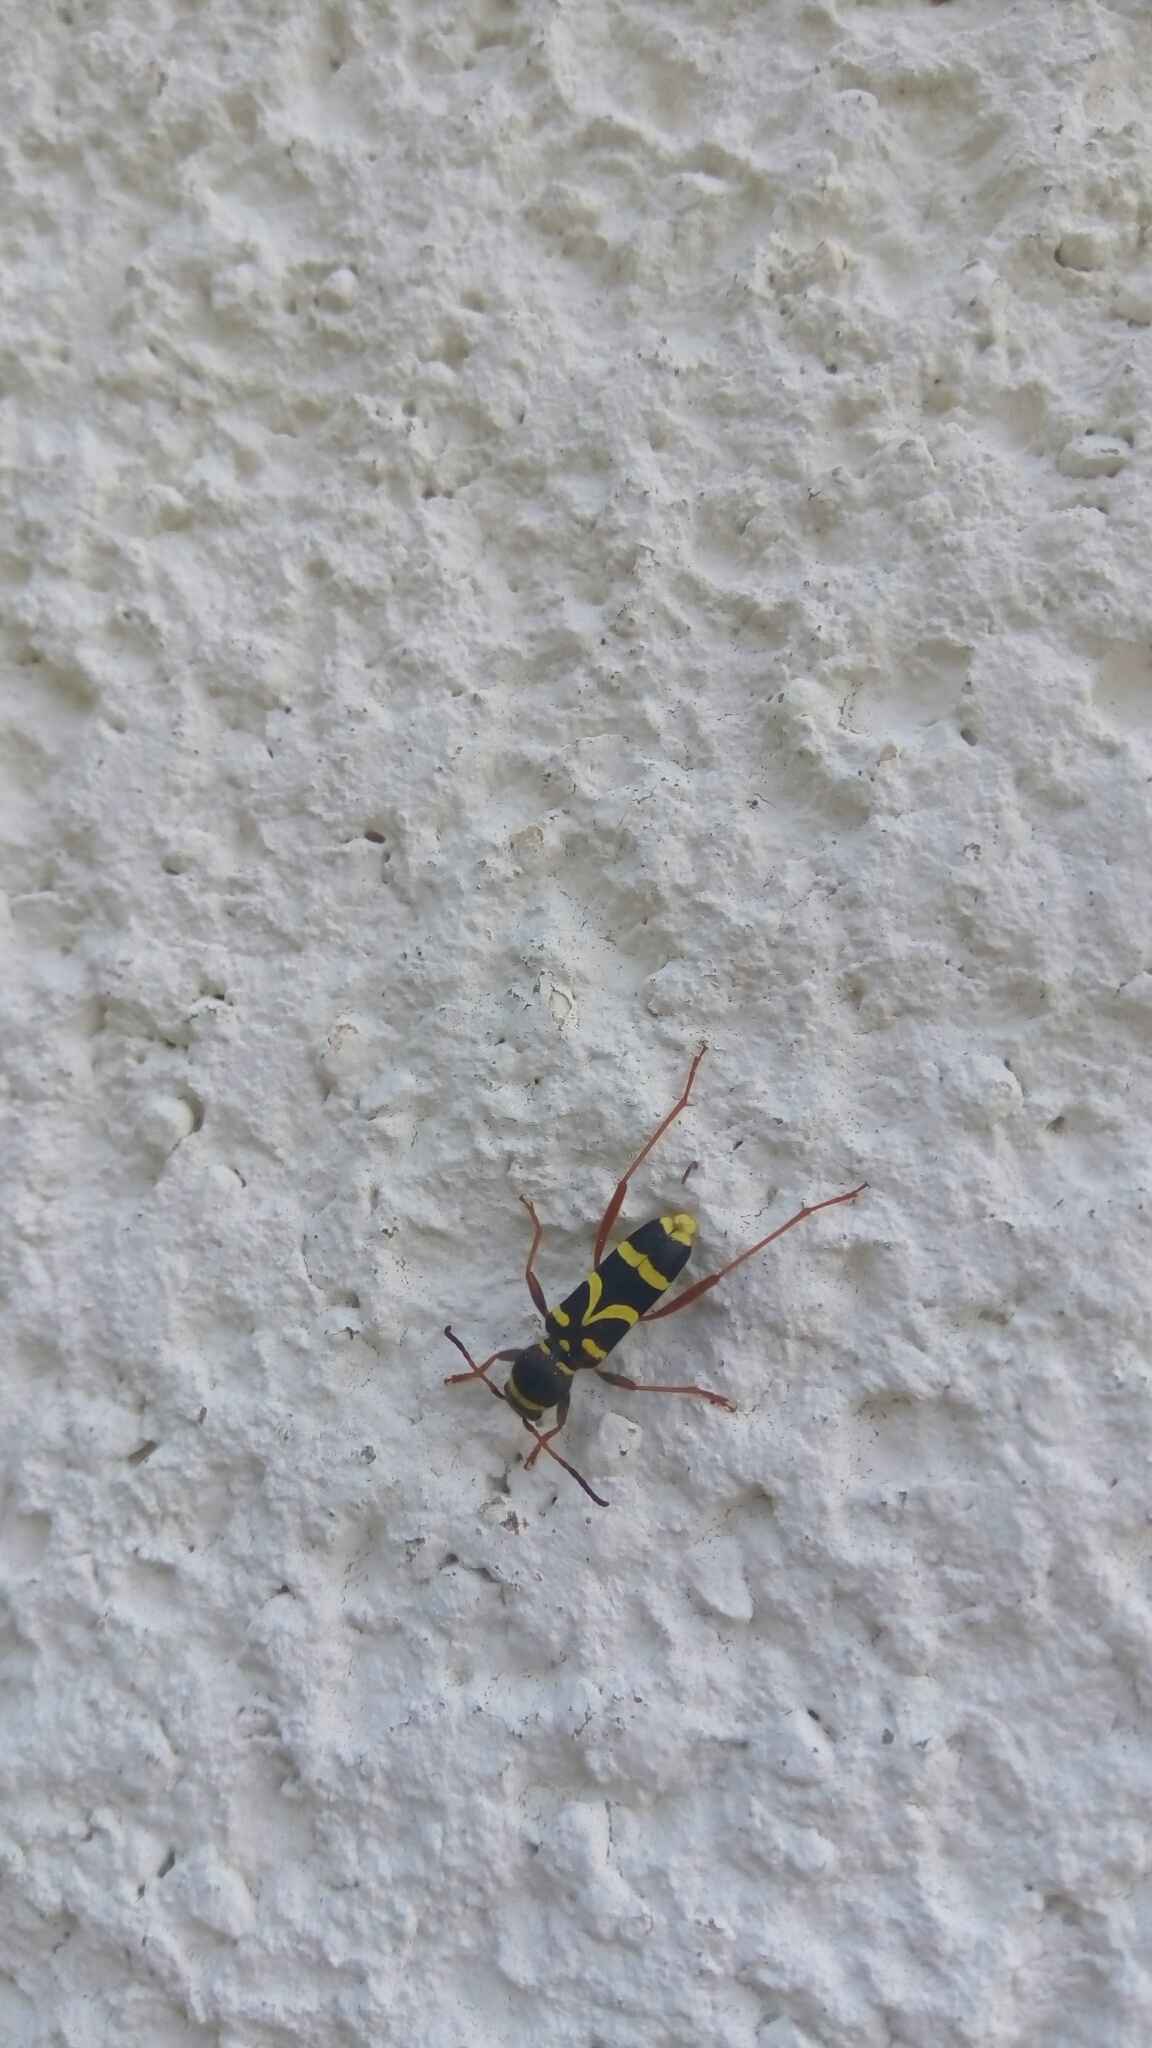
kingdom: Animalia
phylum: Arthropoda
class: Insecta
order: Coleoptera
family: Cerambycidae
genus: Clytus
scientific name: Clytus arietis
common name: Wasp beetle
